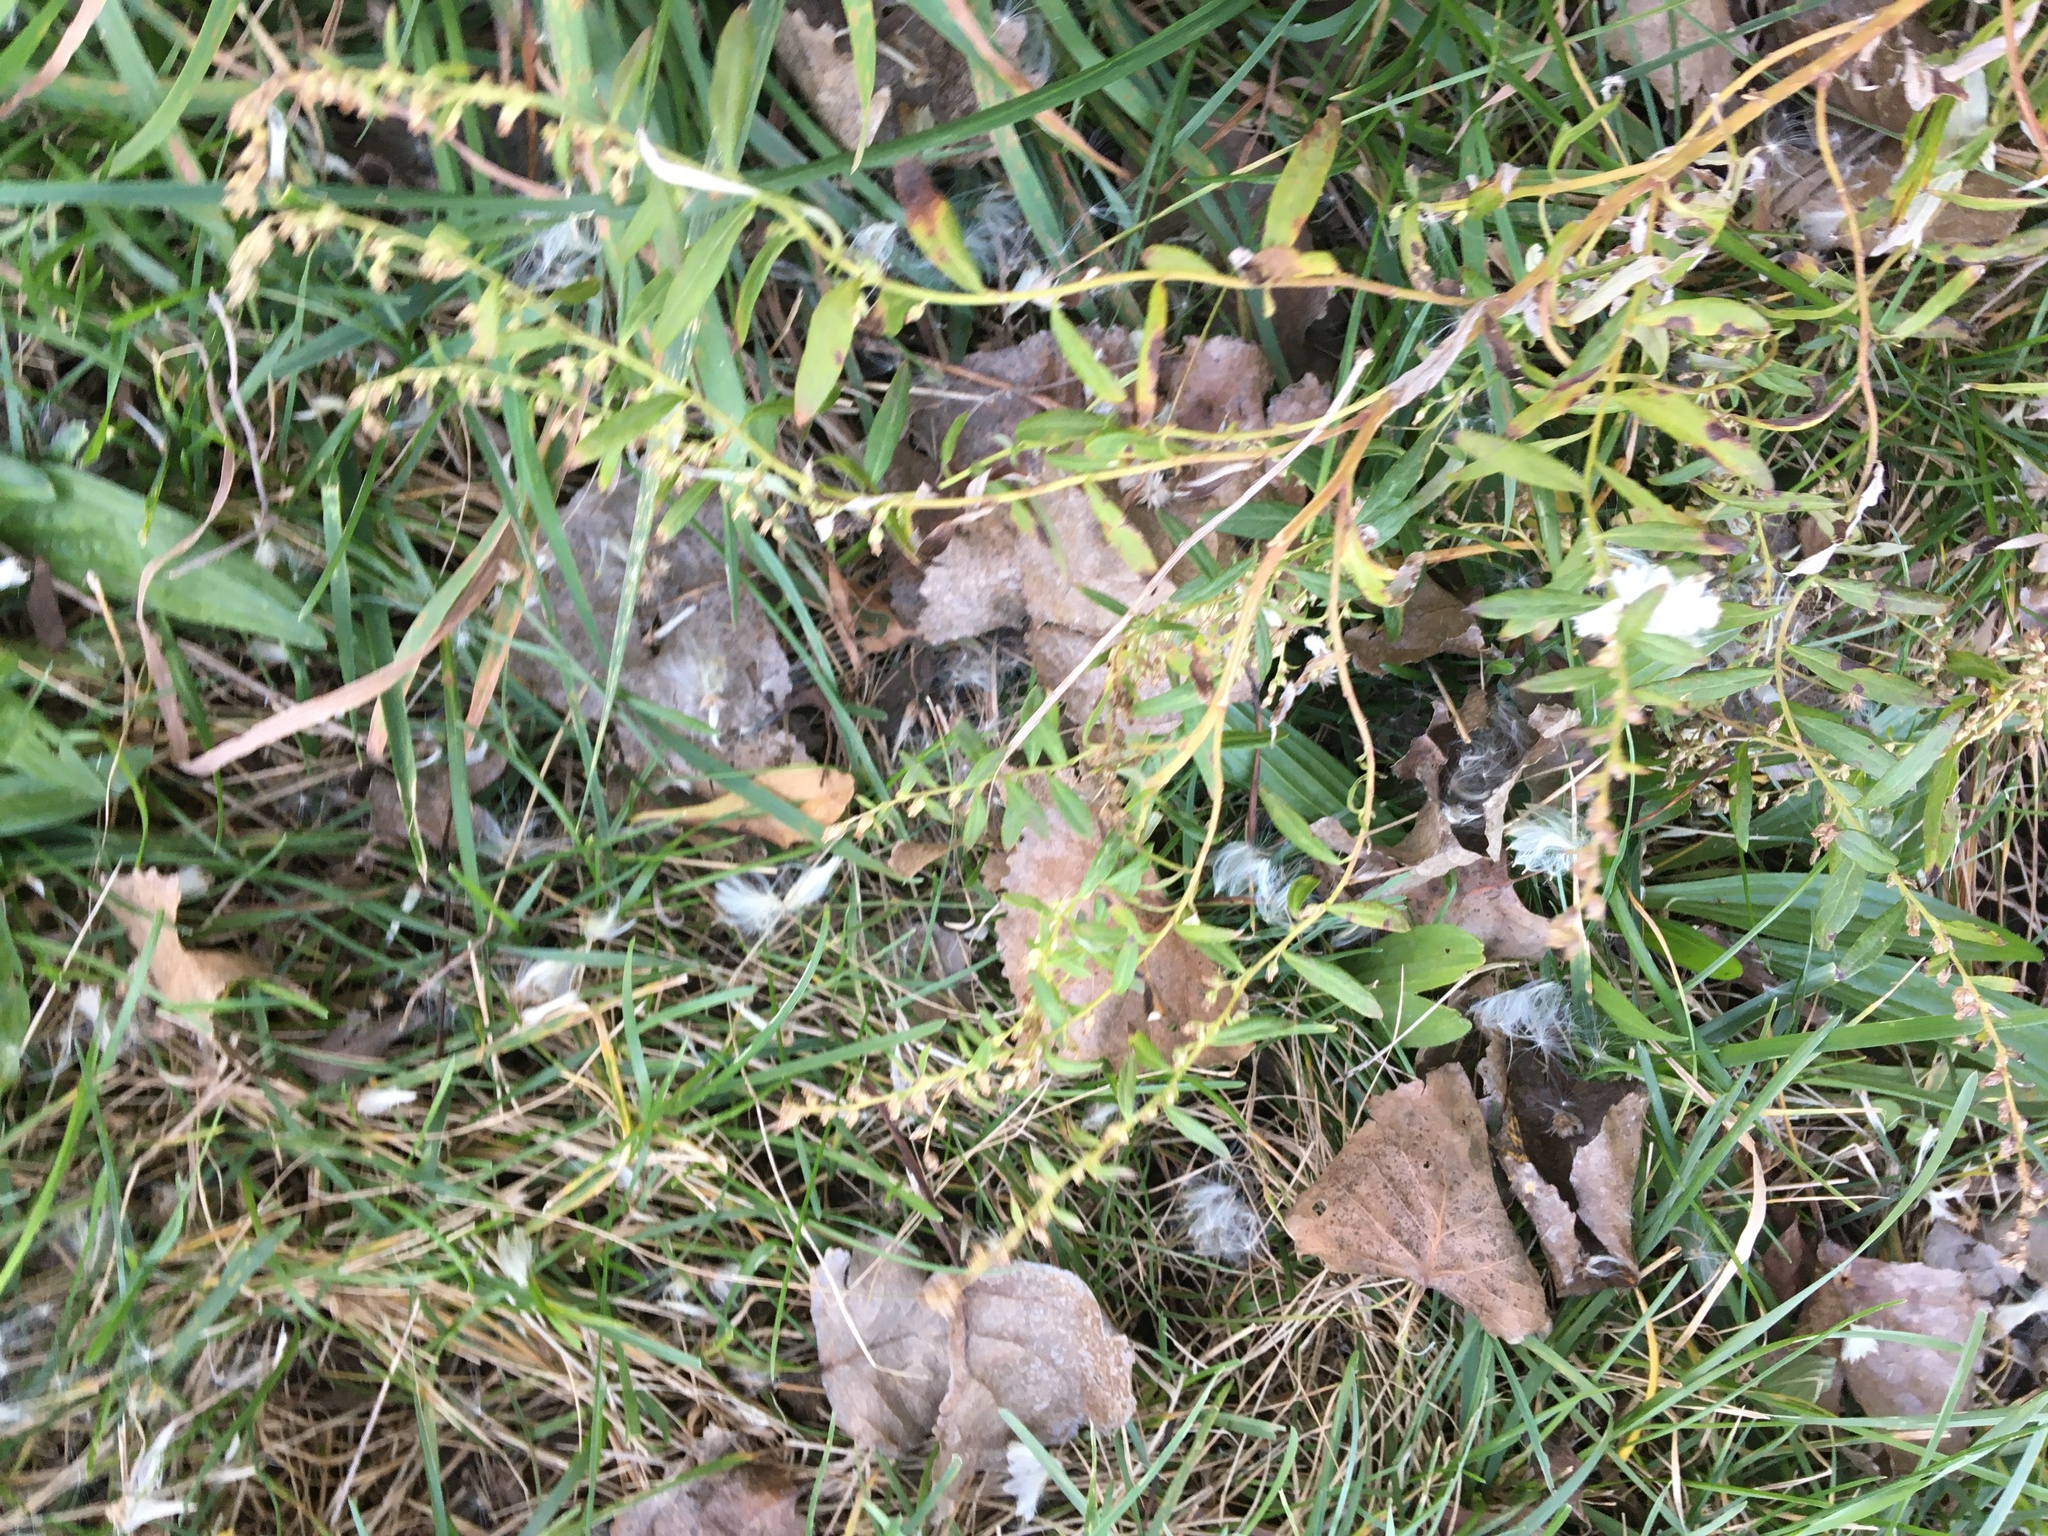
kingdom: Plantae
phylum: Tracheophyta
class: Magnoliopsida
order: Asterales
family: Asteraceae
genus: Artemisia
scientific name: Artemisia vulgaris
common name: Mugwort
